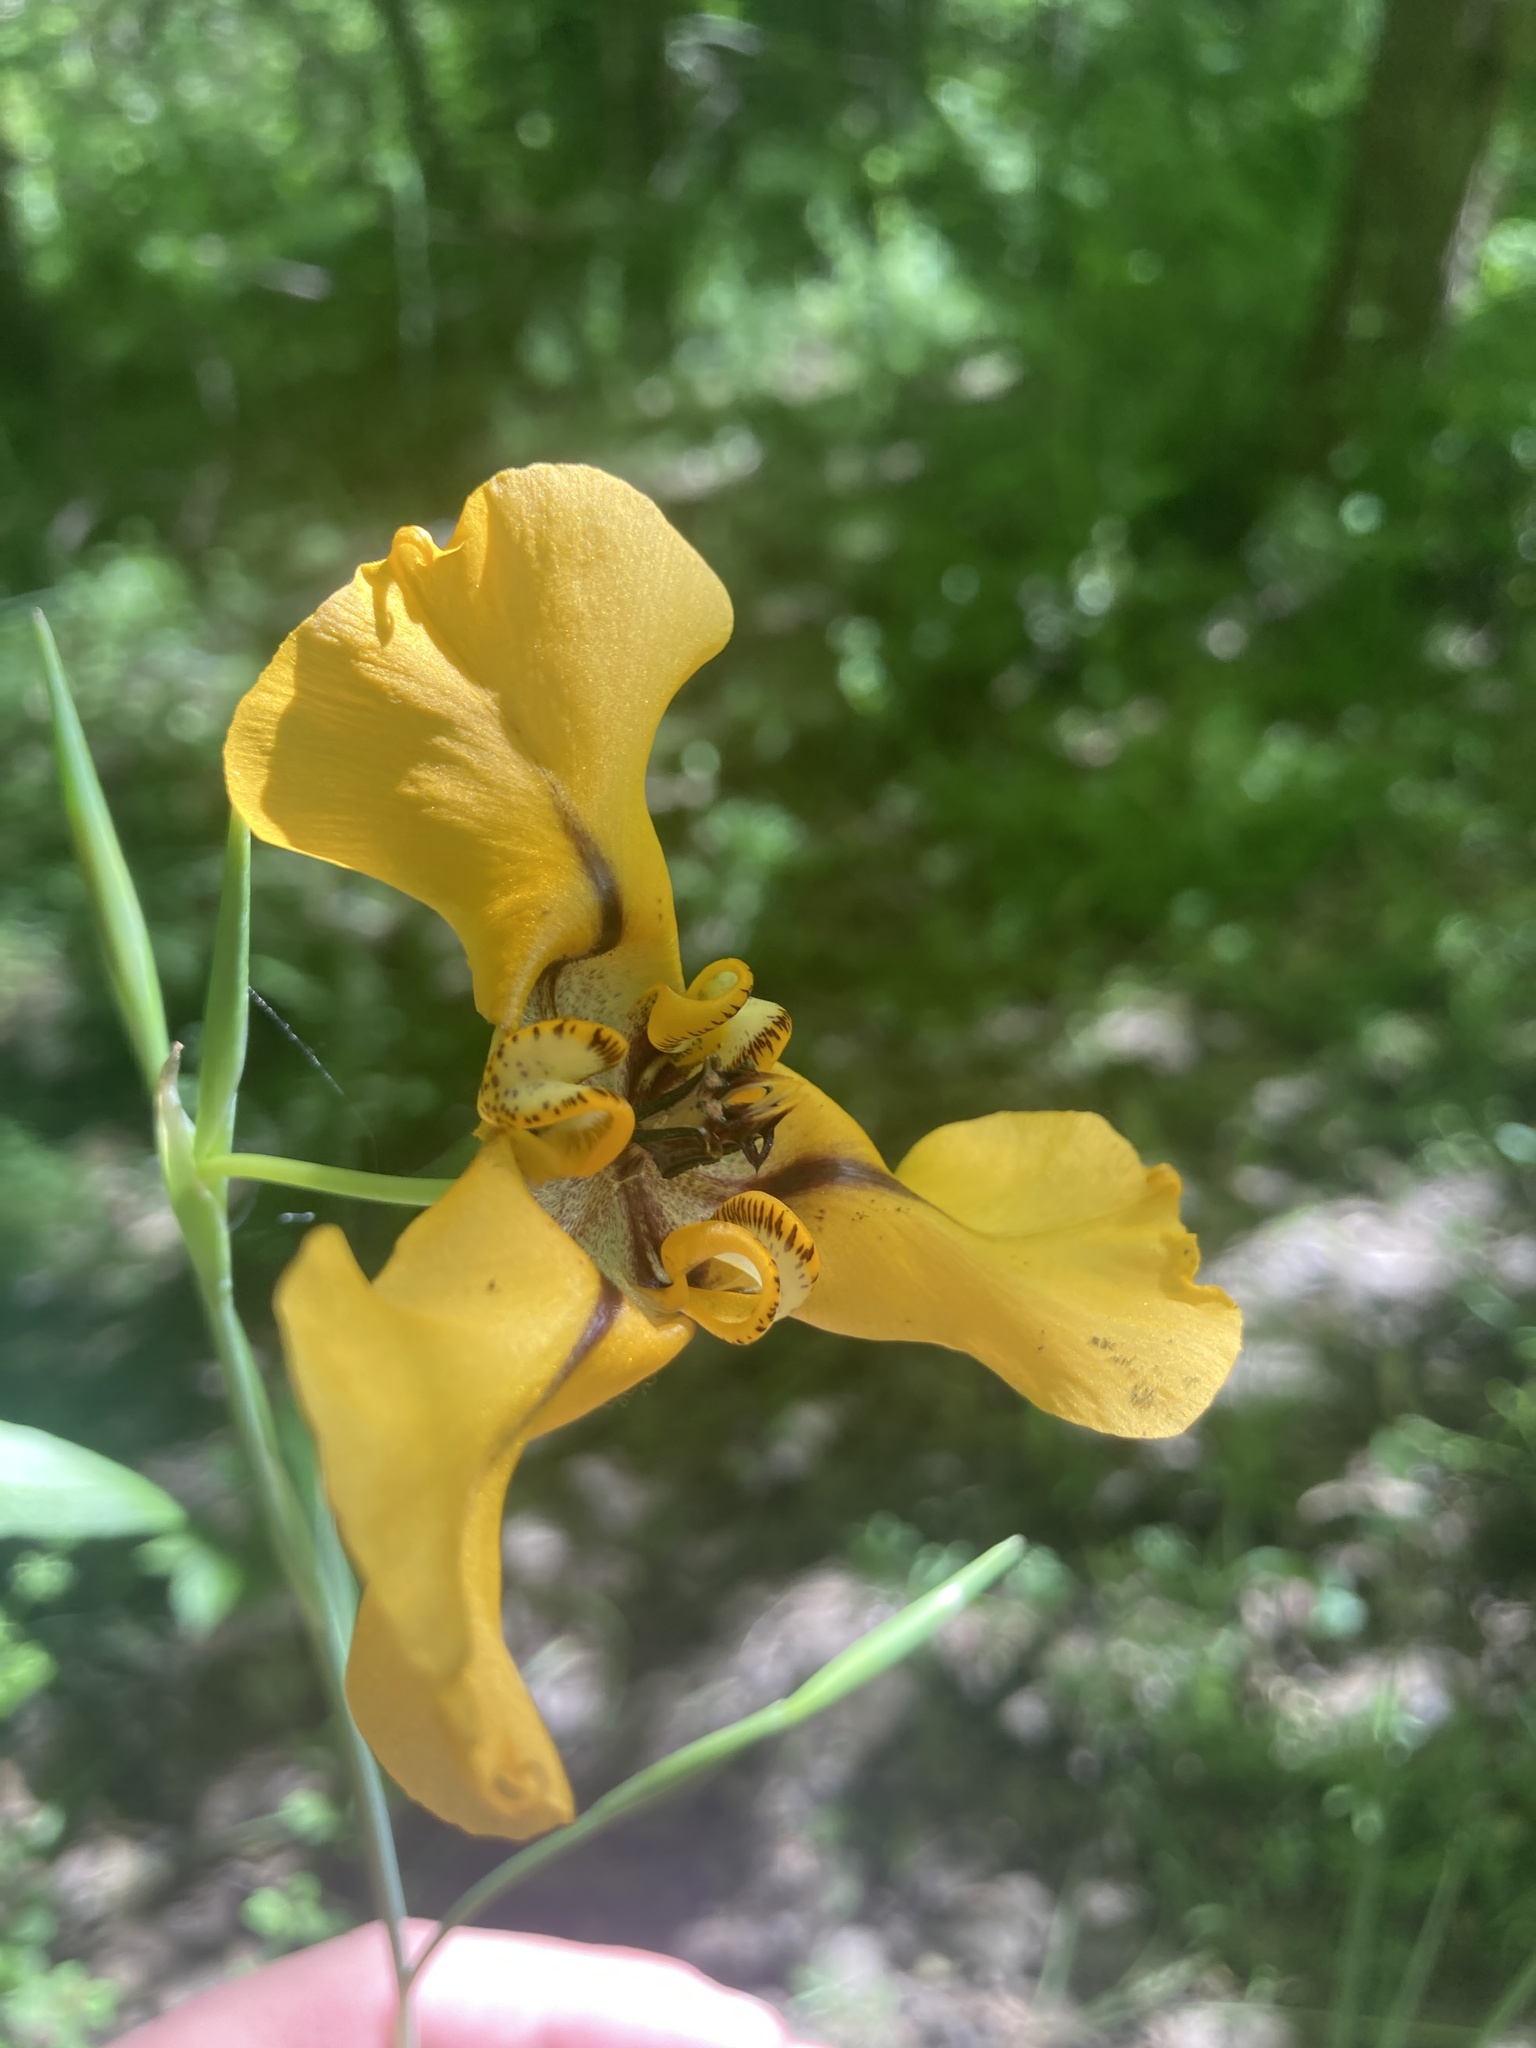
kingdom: Plantae
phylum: Tracheophyta
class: Liliopsida
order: Asparagales
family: Iridaceae
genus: Cypella
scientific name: Cypella herbertii
